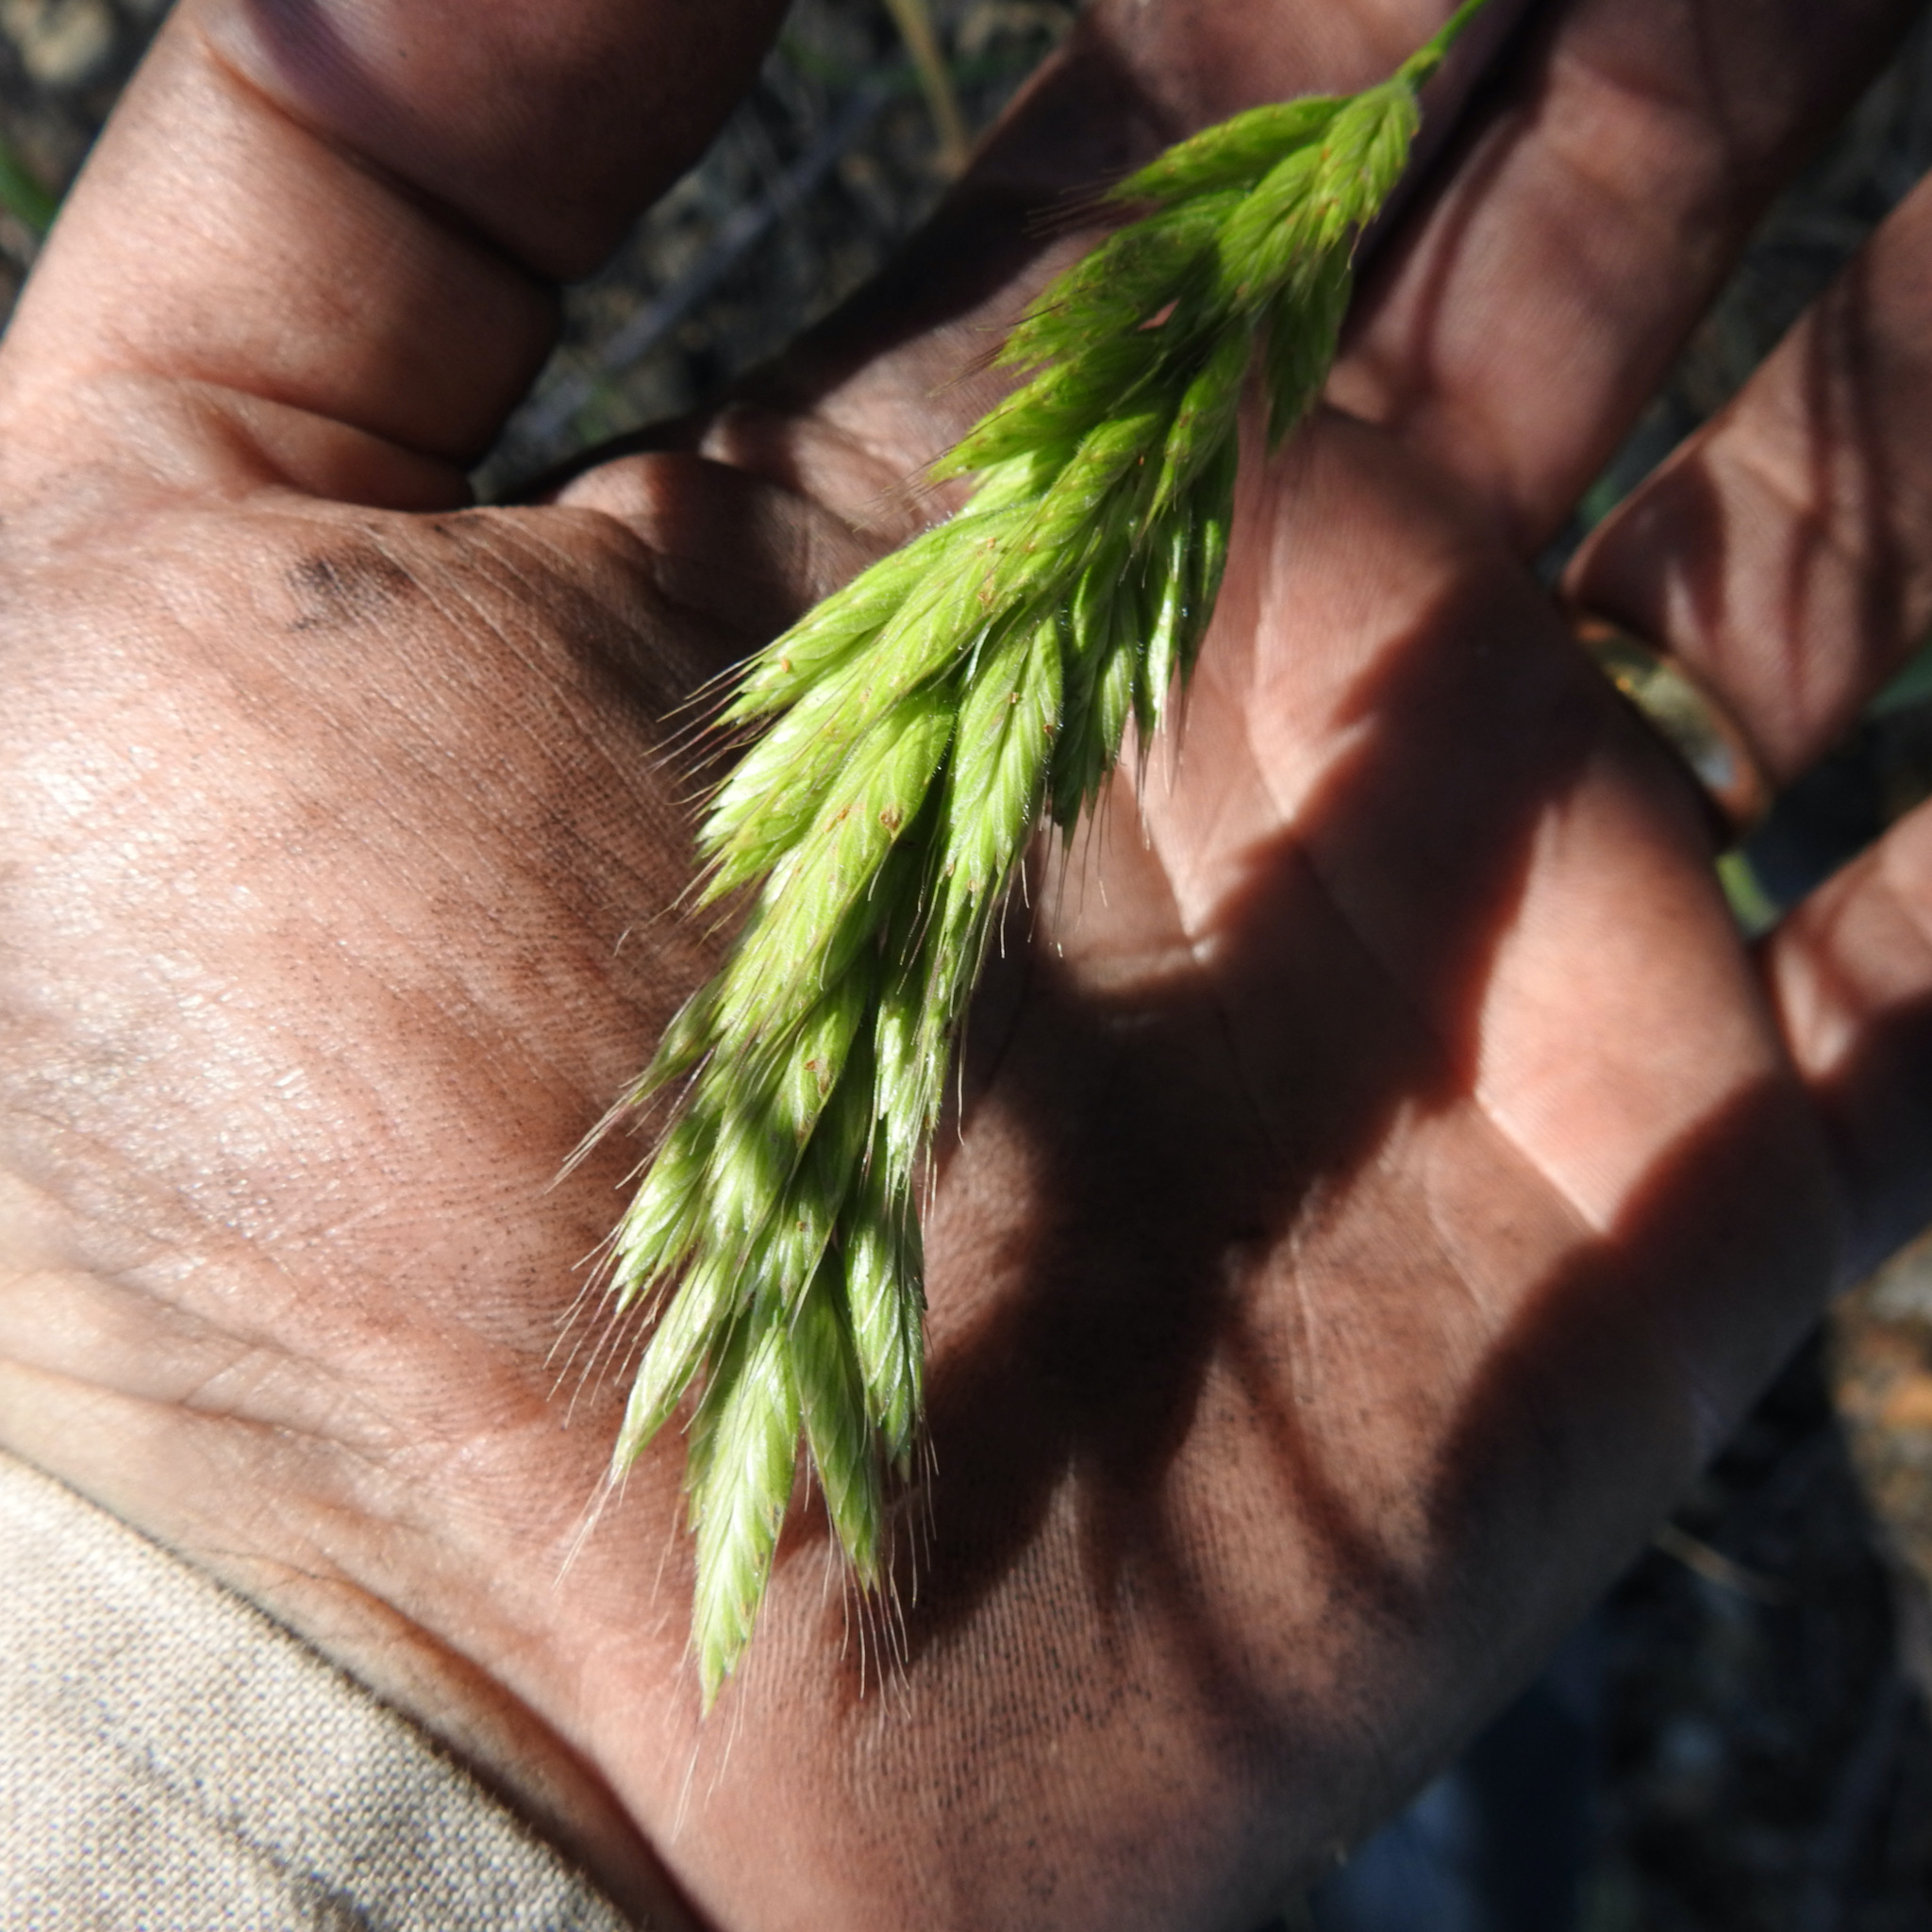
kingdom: Plantae
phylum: Tracheophyta
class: Liliopsida
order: Poales
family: Poaceae
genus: Bromus
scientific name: Bromus hordeaceus
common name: Soft brome
